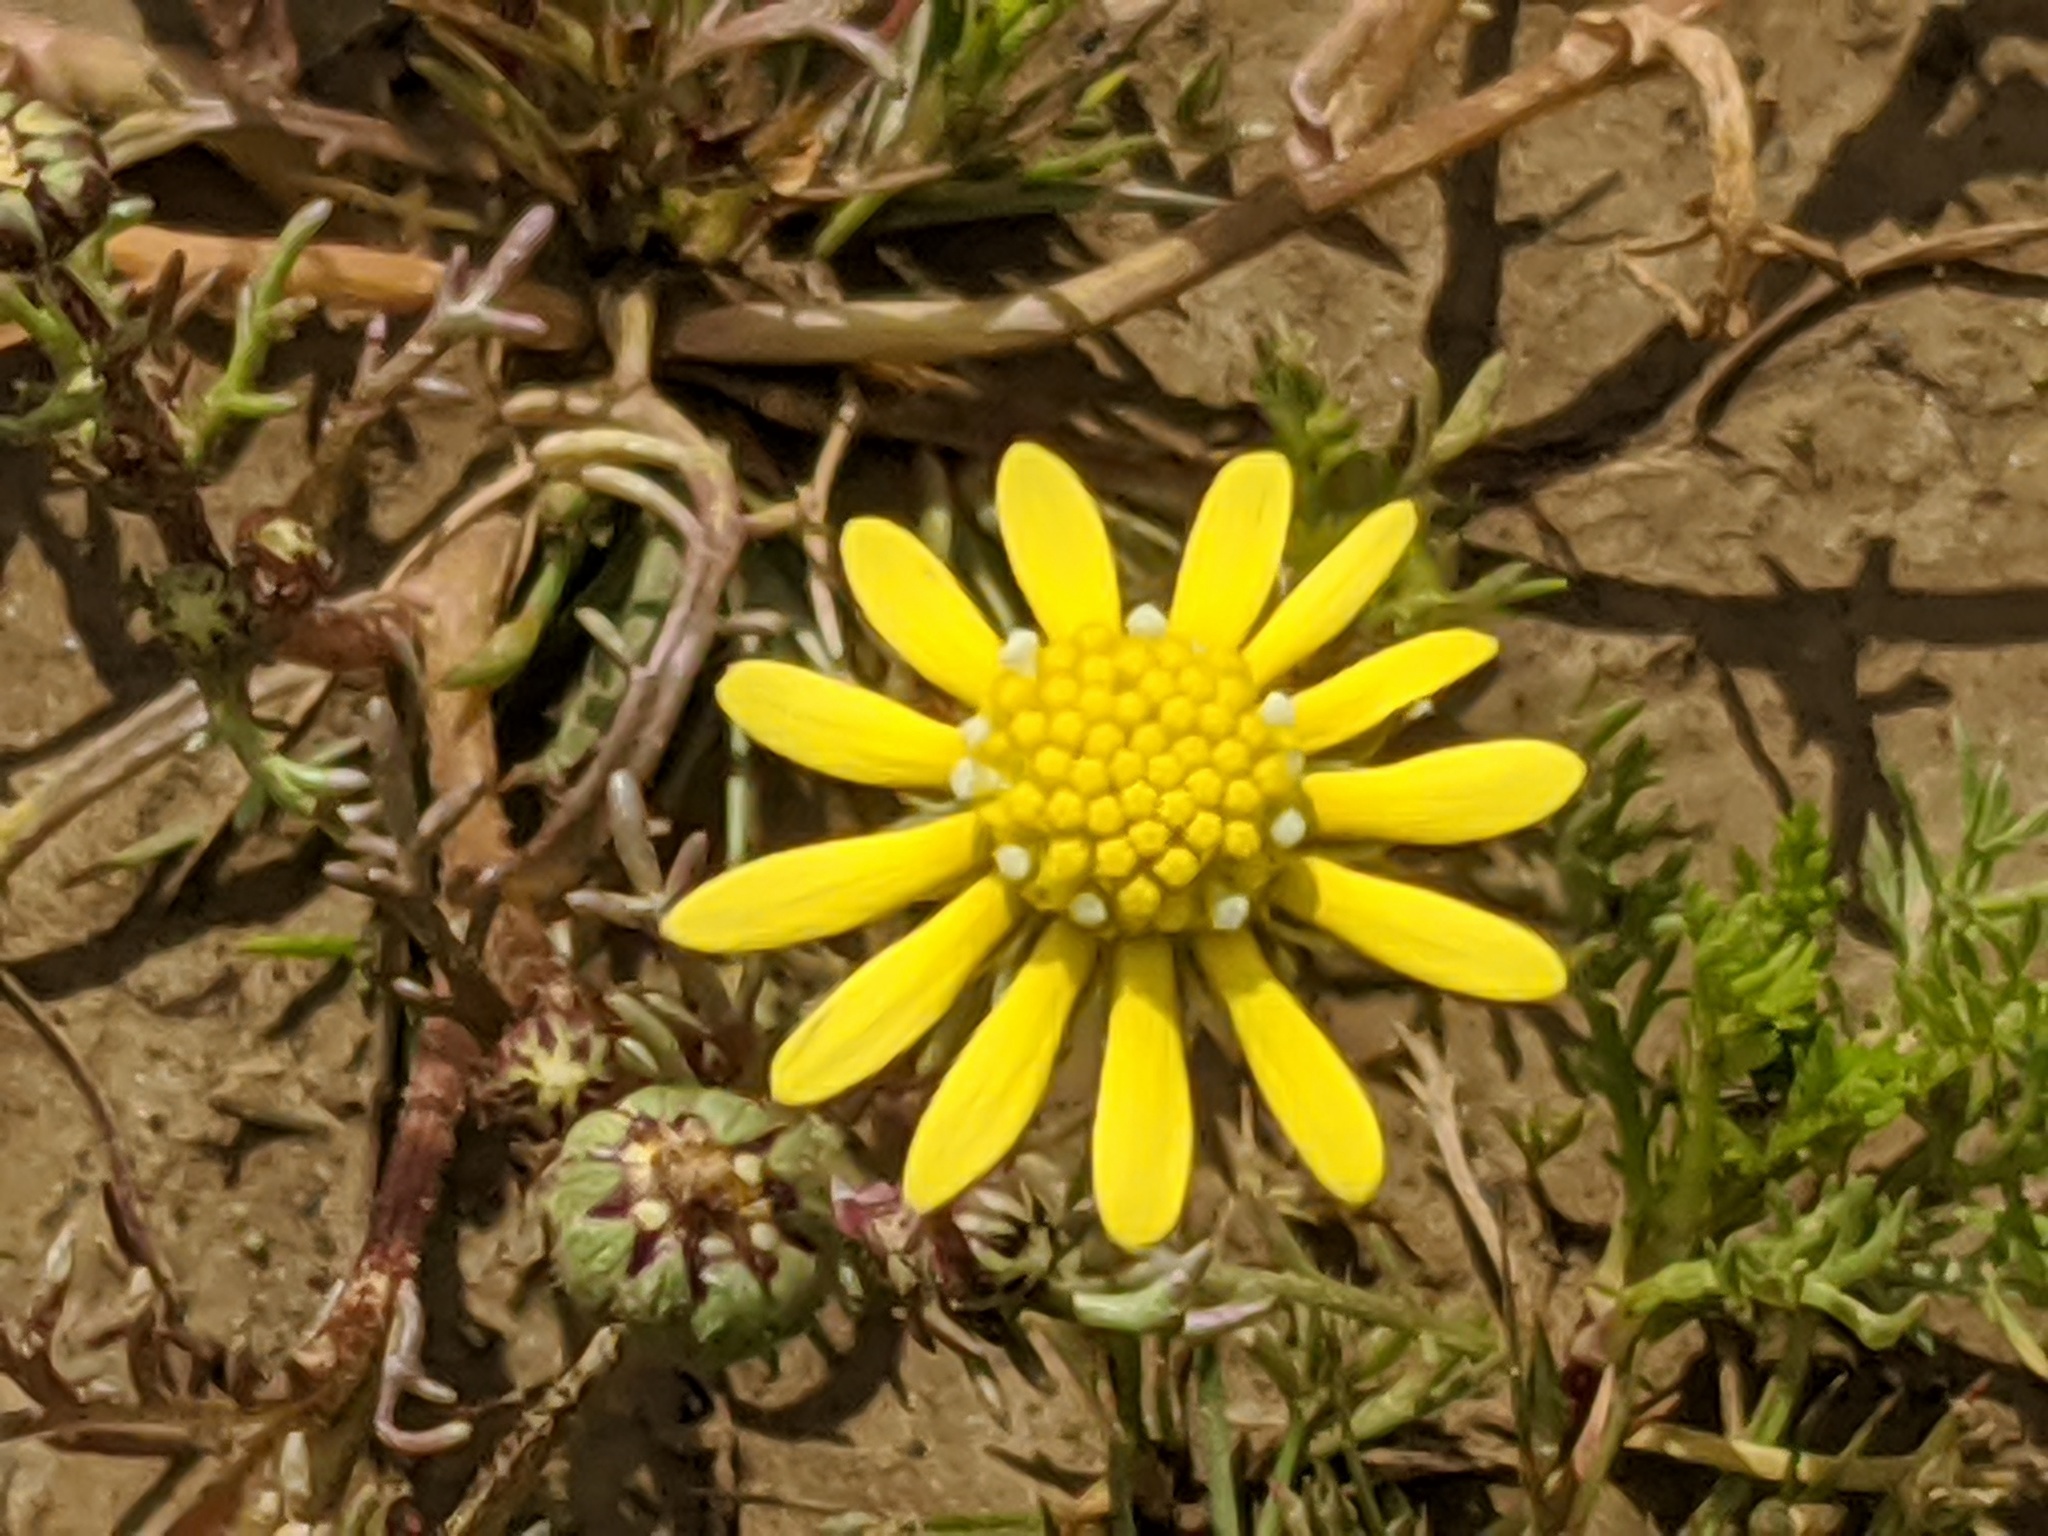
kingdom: Plantae
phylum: Tracheophyta
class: Magnoliopsida
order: Asterales
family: Asteraceae
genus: Blennosperma
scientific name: Blennosperma nanum
